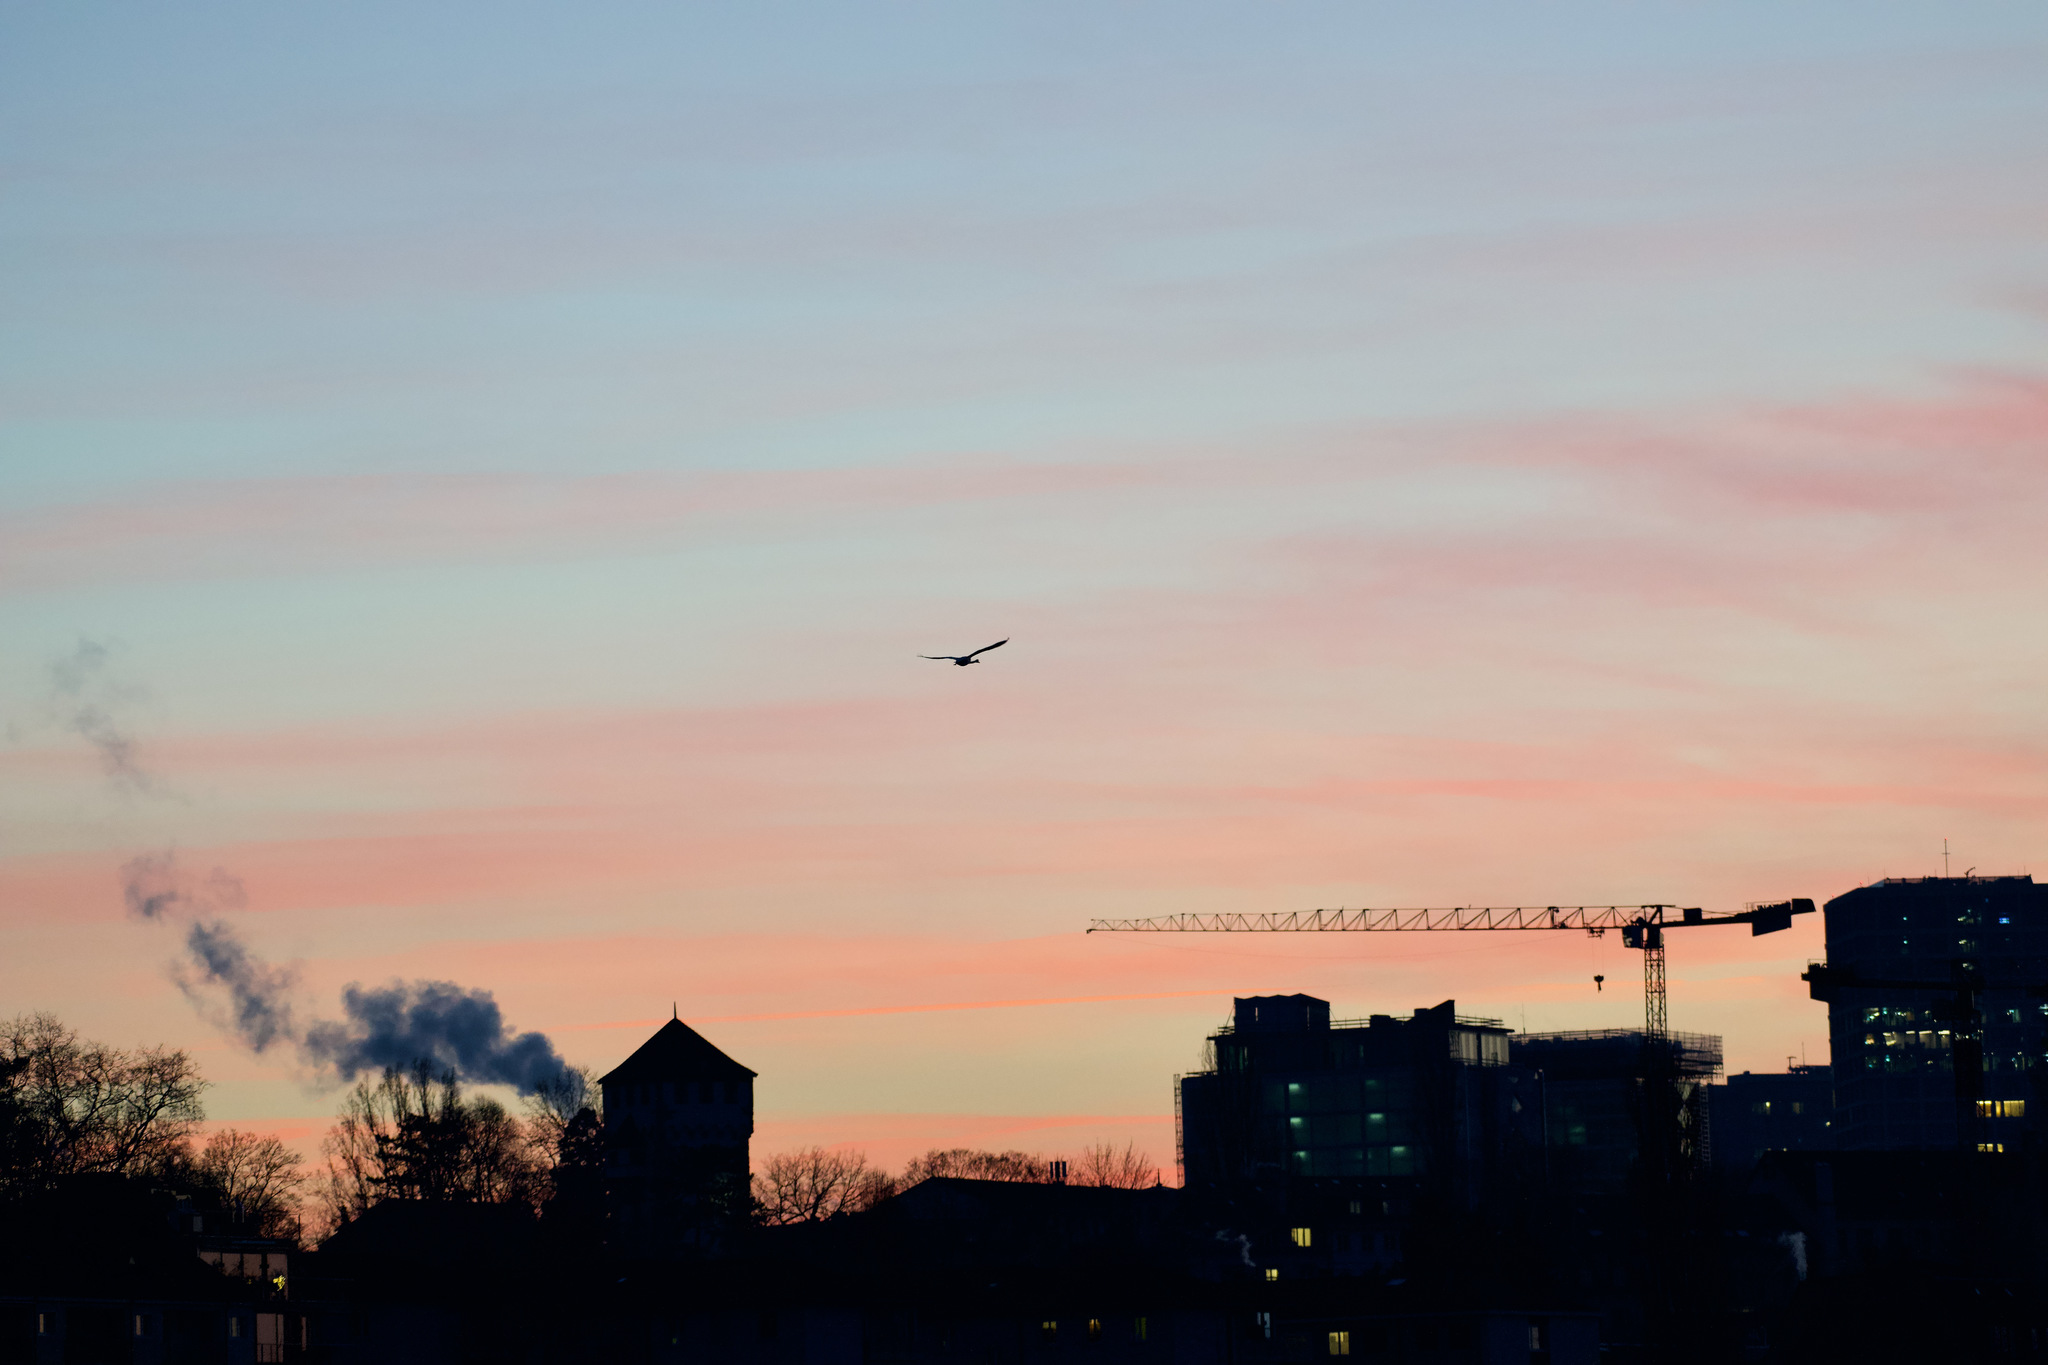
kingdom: Animalia
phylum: Chordata
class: Aves
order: Anseriformes
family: Anatidae
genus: Cygnus
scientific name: Cygnus olor
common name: Mute swan
